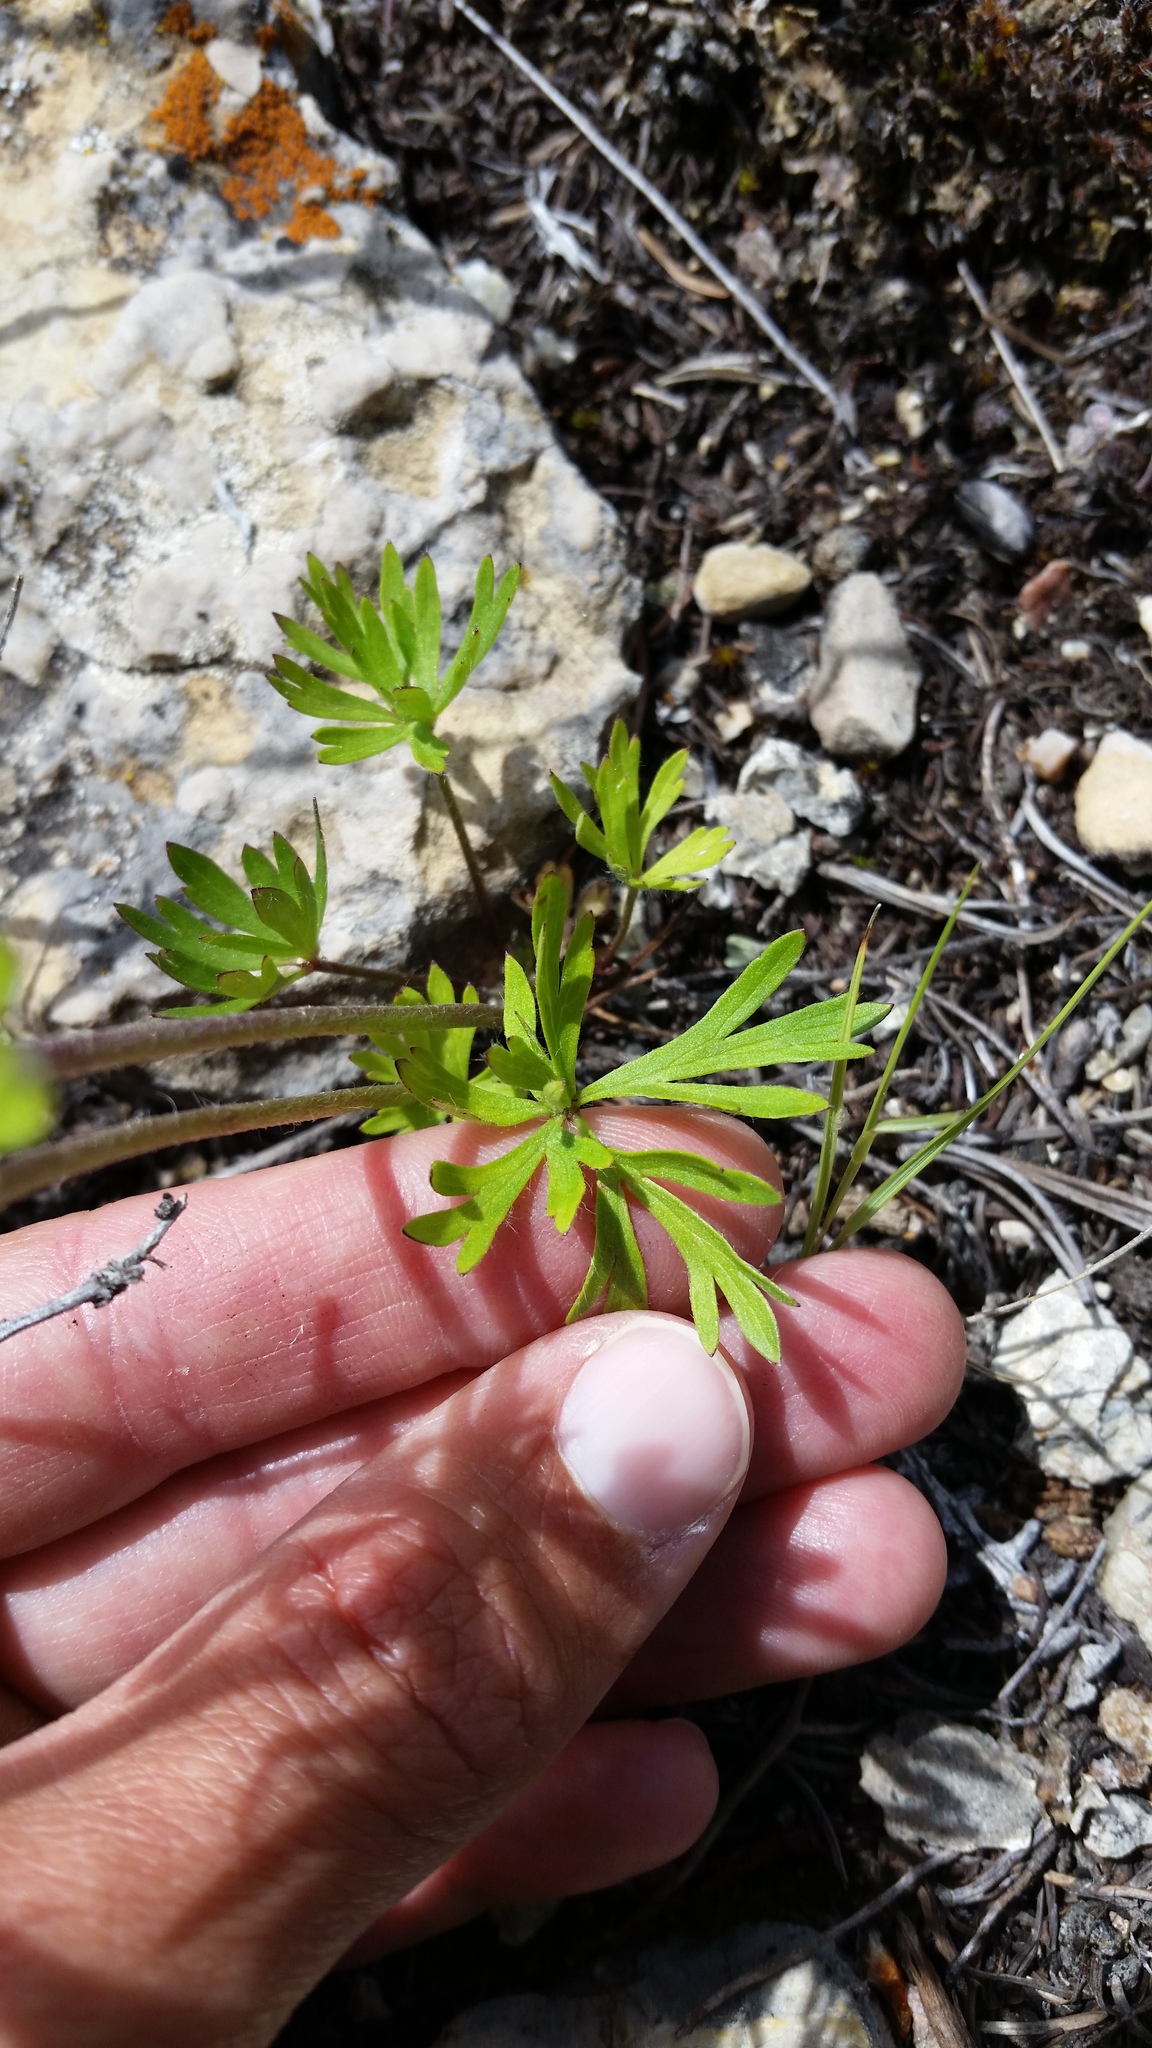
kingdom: Plantae
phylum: Tracheophyta
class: Magnoliopsida
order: Ranunculales
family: Ranunculaceae
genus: Anemone
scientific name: Anemone multifida
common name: Bird's-foot anemone
